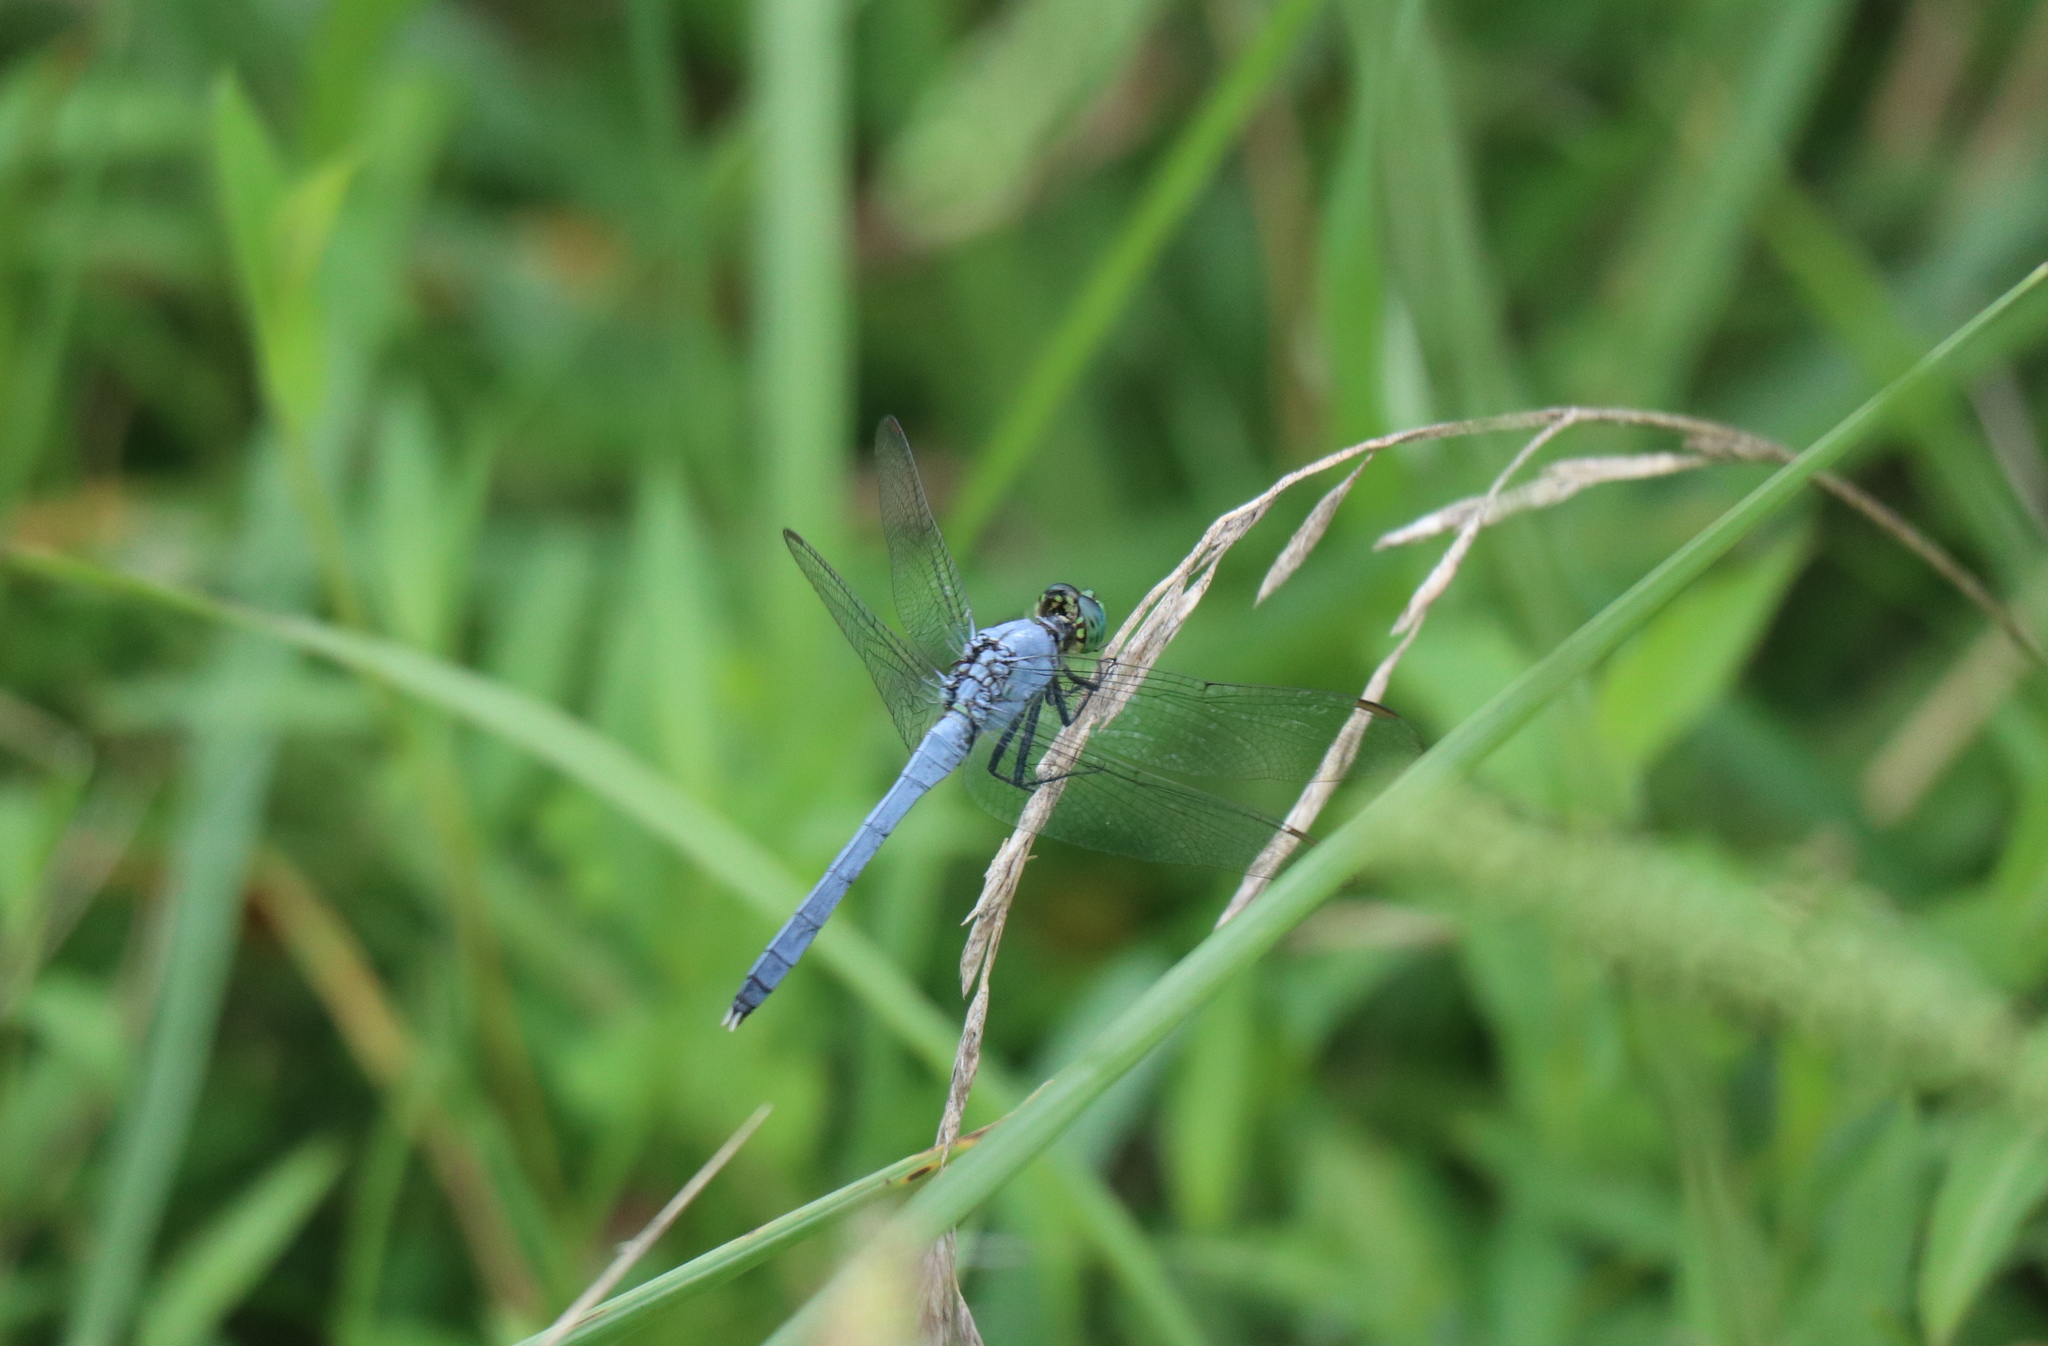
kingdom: Animalia
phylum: Arthropoda
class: Insecta
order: Odonata
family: Libellulidae
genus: Erythemis
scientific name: Erythemis simplicicollis
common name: Eastern pondhawk
